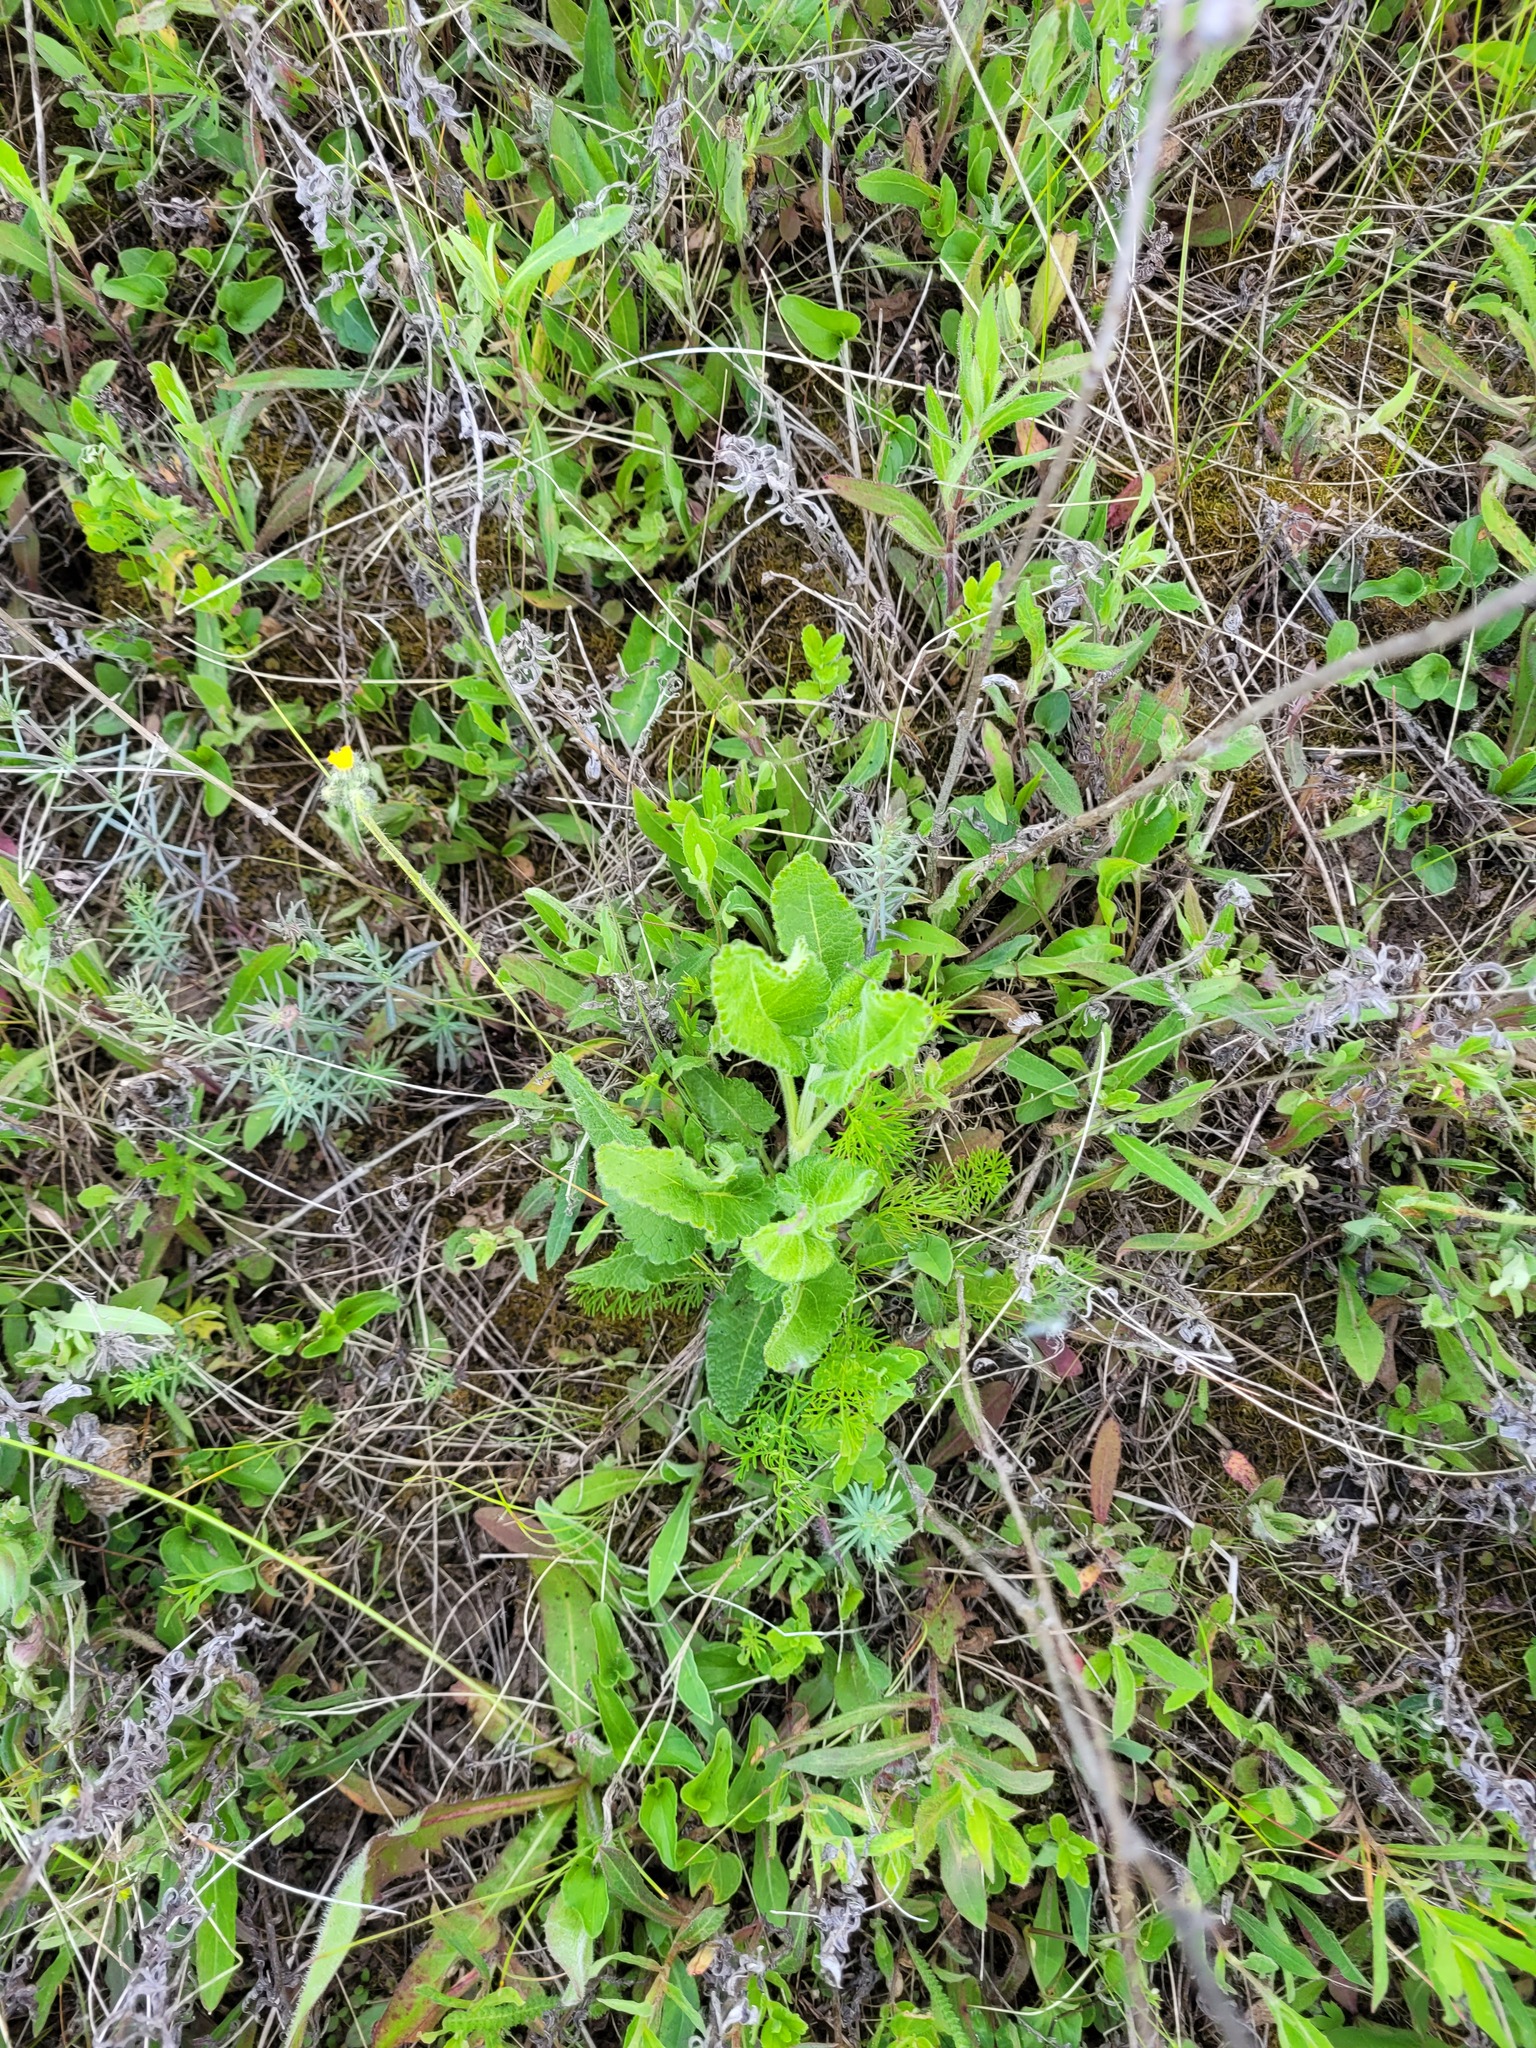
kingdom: Plantae
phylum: Tracheophyta
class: Magnoliopsida
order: Lamiales
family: Lamiaceae
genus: Betonica
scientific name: Betonica officinalis
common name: Bishop's-wort
